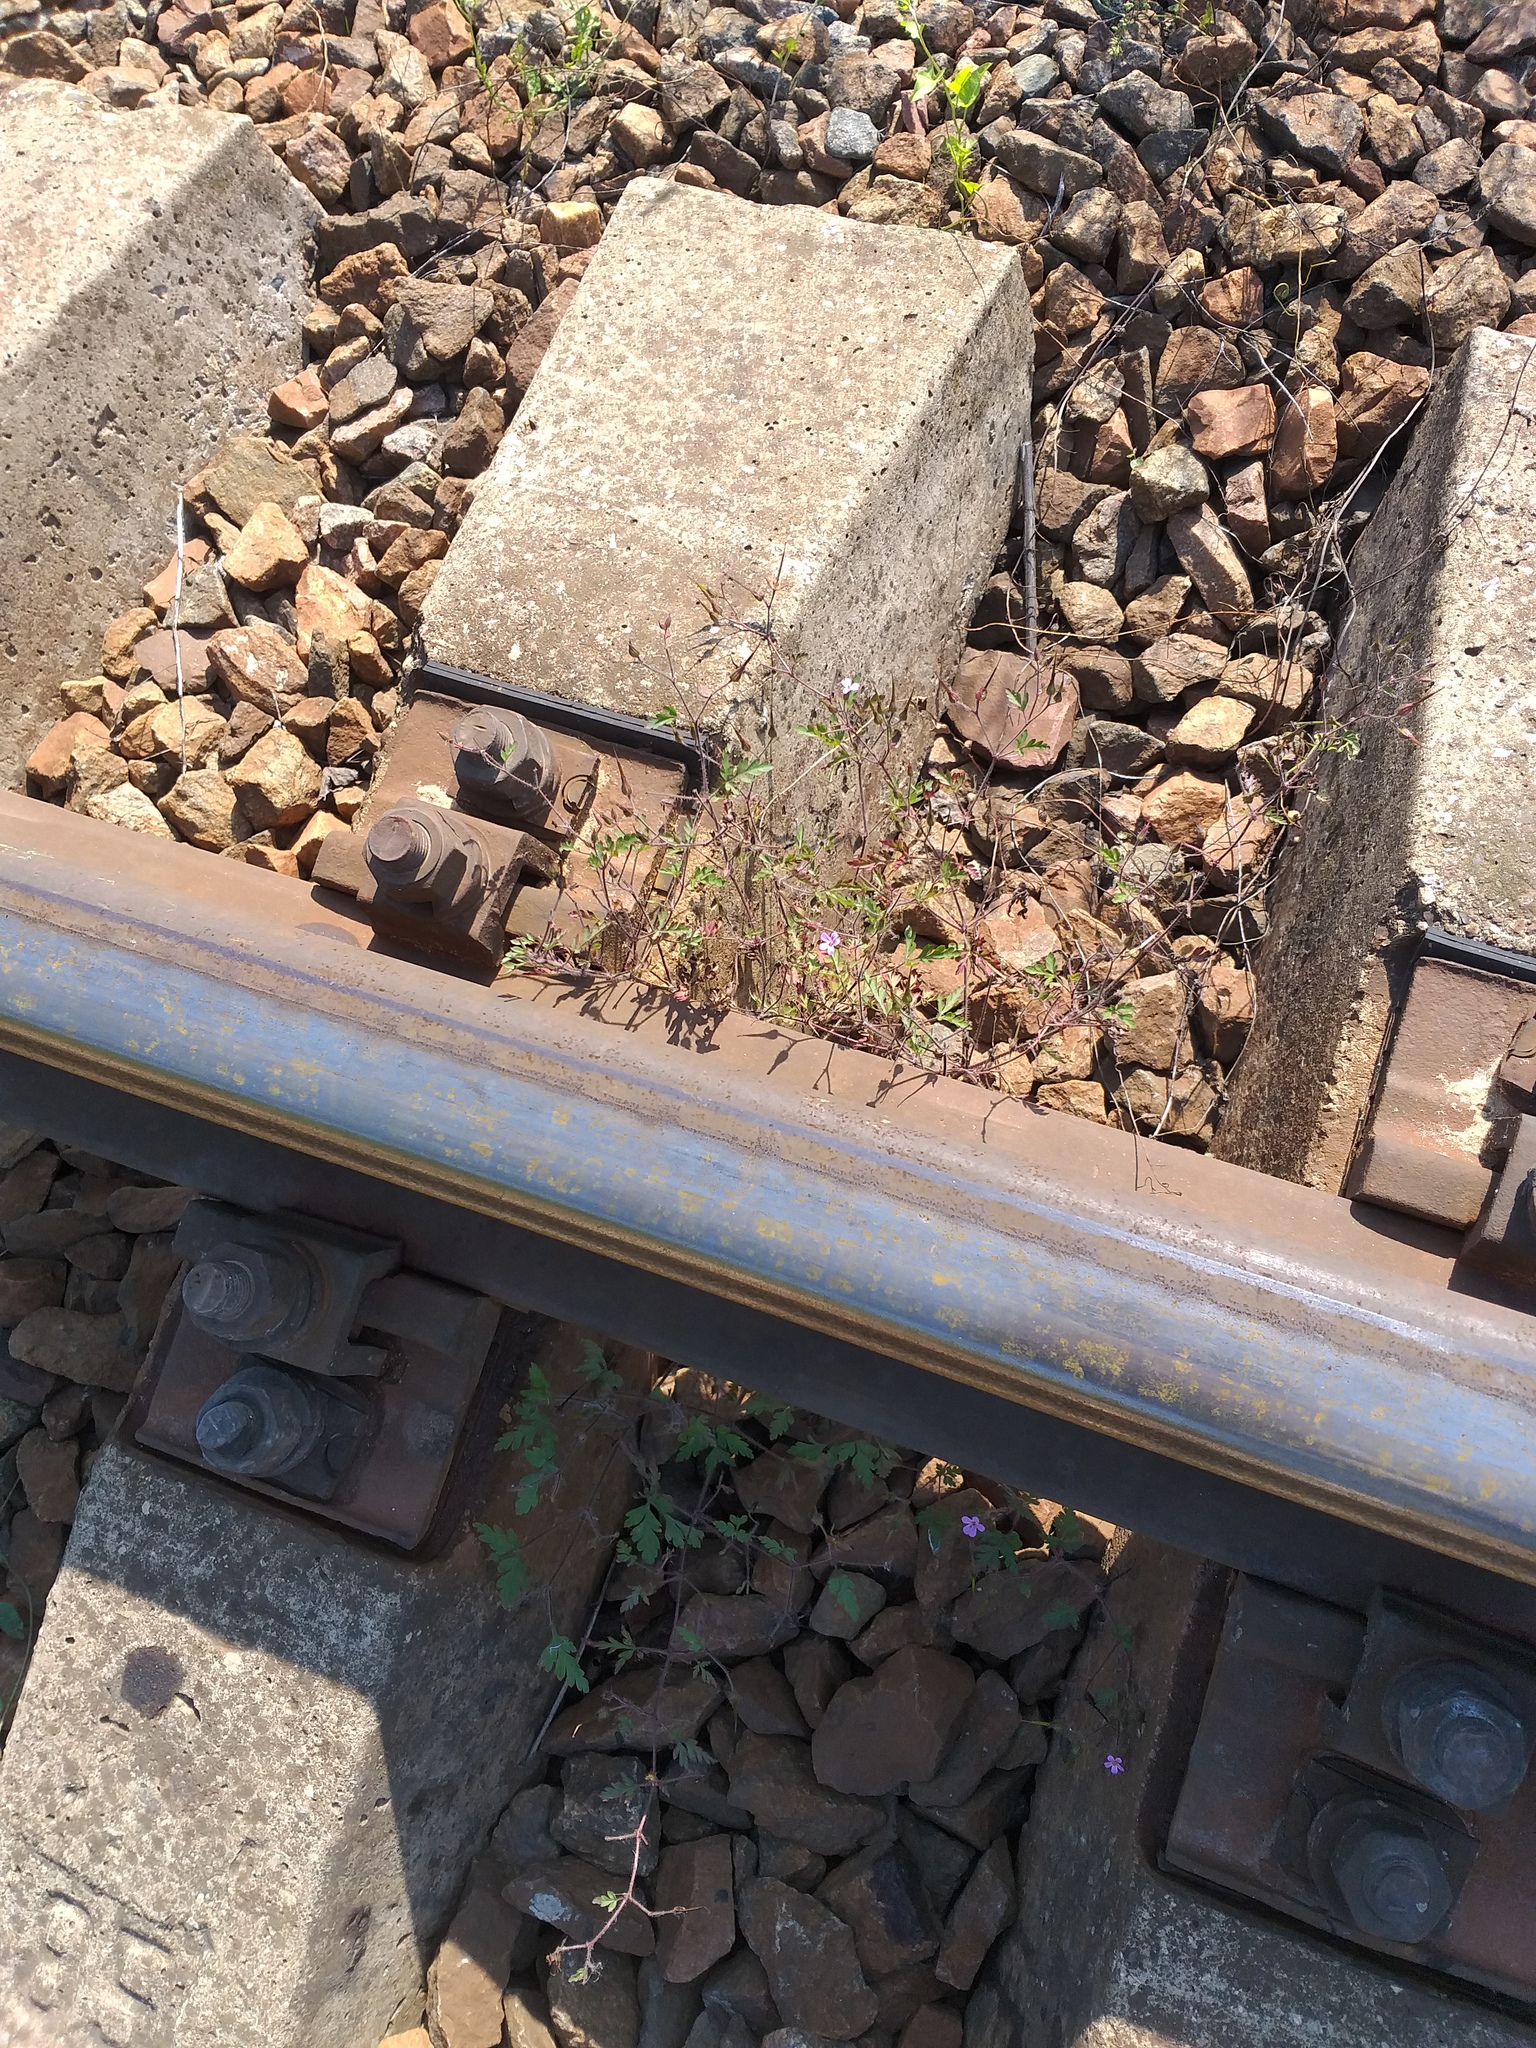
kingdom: Plantae
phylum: Tracheophyta
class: Magnoliopsida
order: Geraniales
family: Geraniaceae
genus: Geranium
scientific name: Geranium robertianum
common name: Herb-robert
